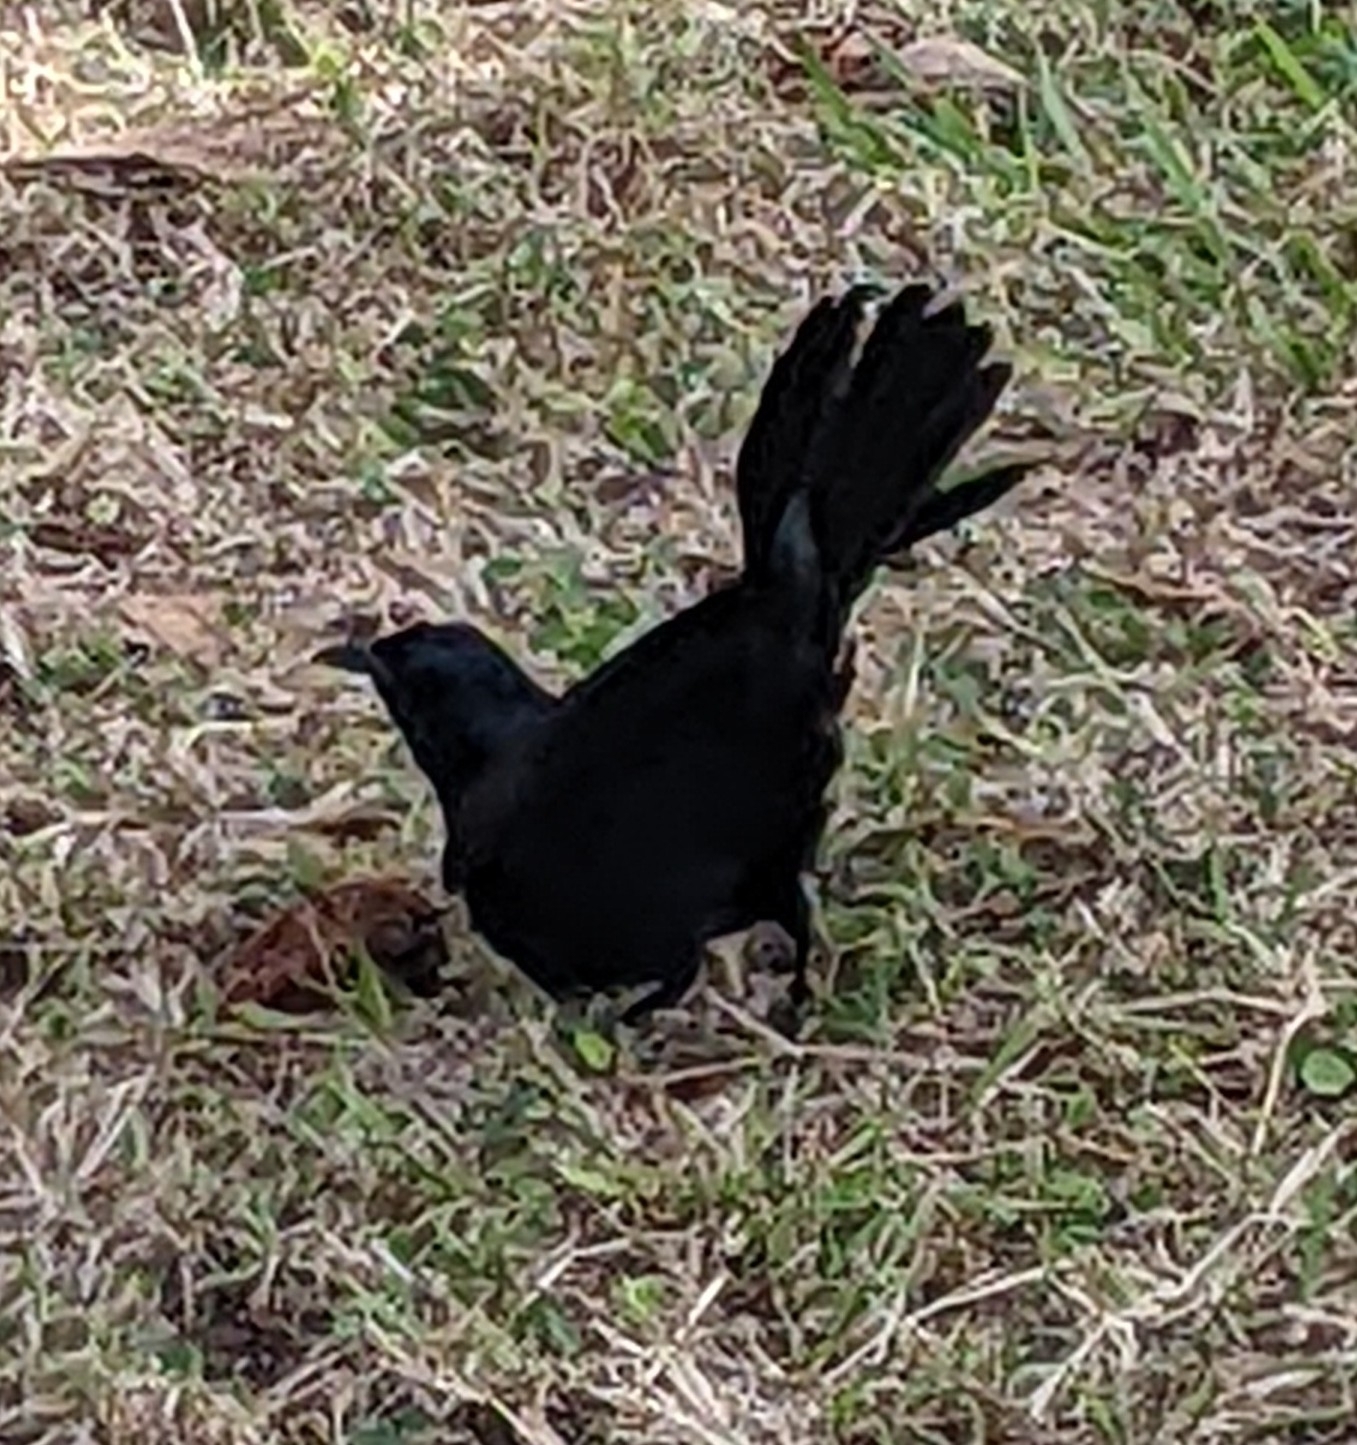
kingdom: Animalia
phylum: Chordata
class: Aves
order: Passeriformes
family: Icteridae
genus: Dives
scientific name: Dives atroviolaceus
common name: Cuban blackbird
